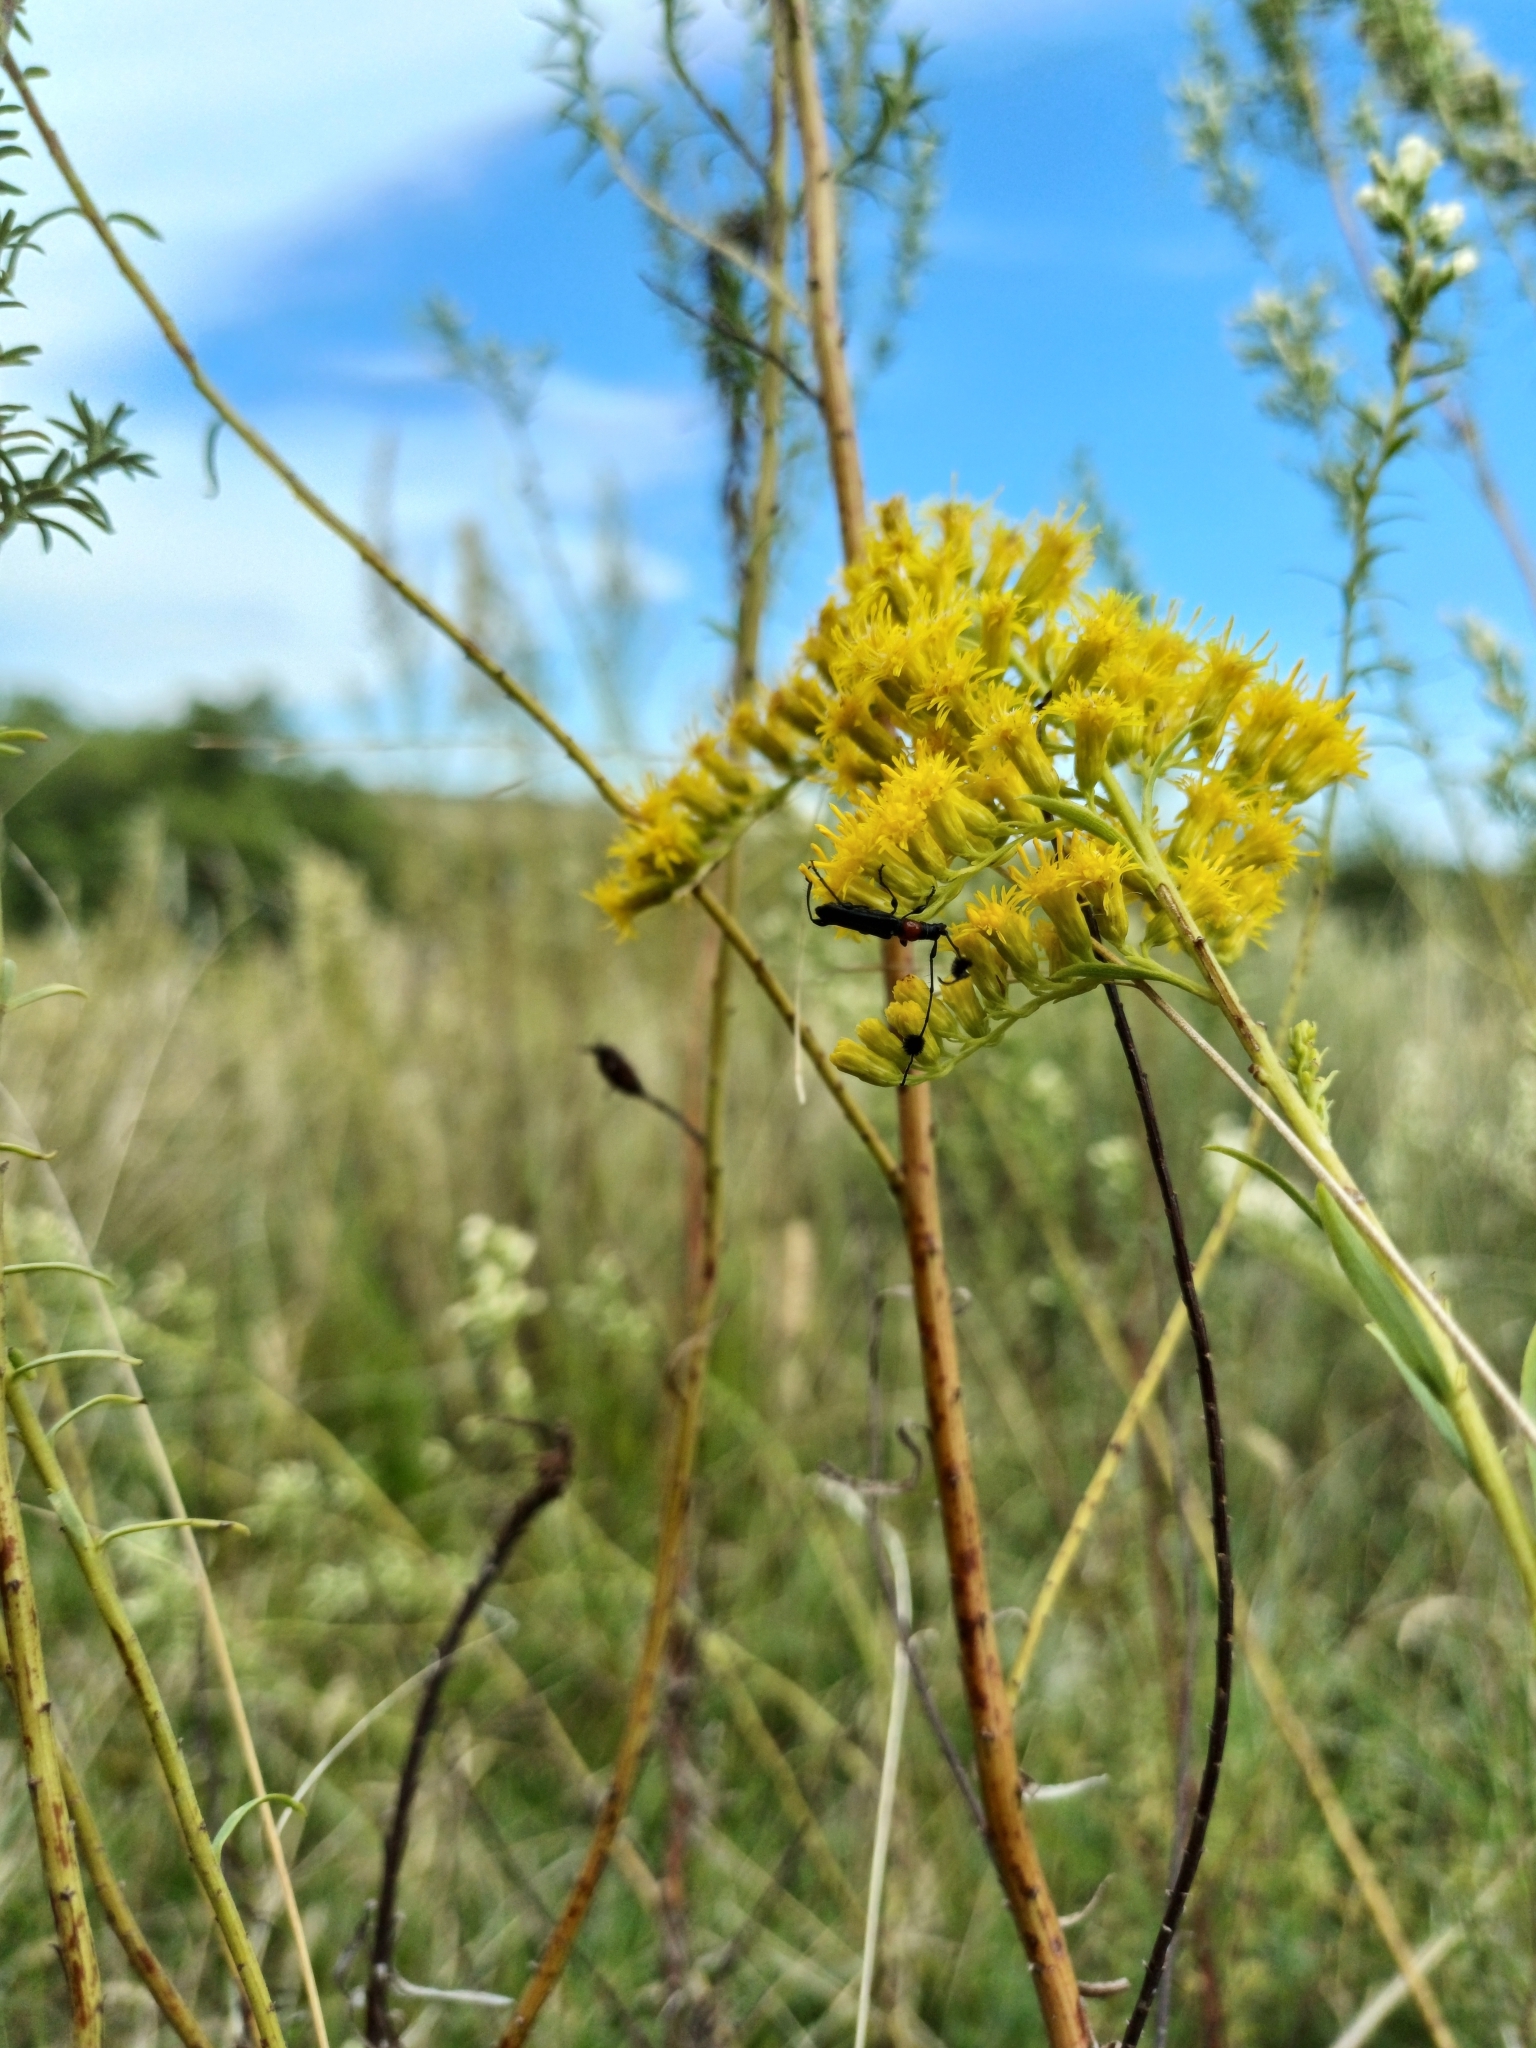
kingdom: Animalia
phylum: Arthropoda
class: Insecta
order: Coleoptera
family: Cerambycidae
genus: Cosmisoma
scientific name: Cosmisoma brullei
